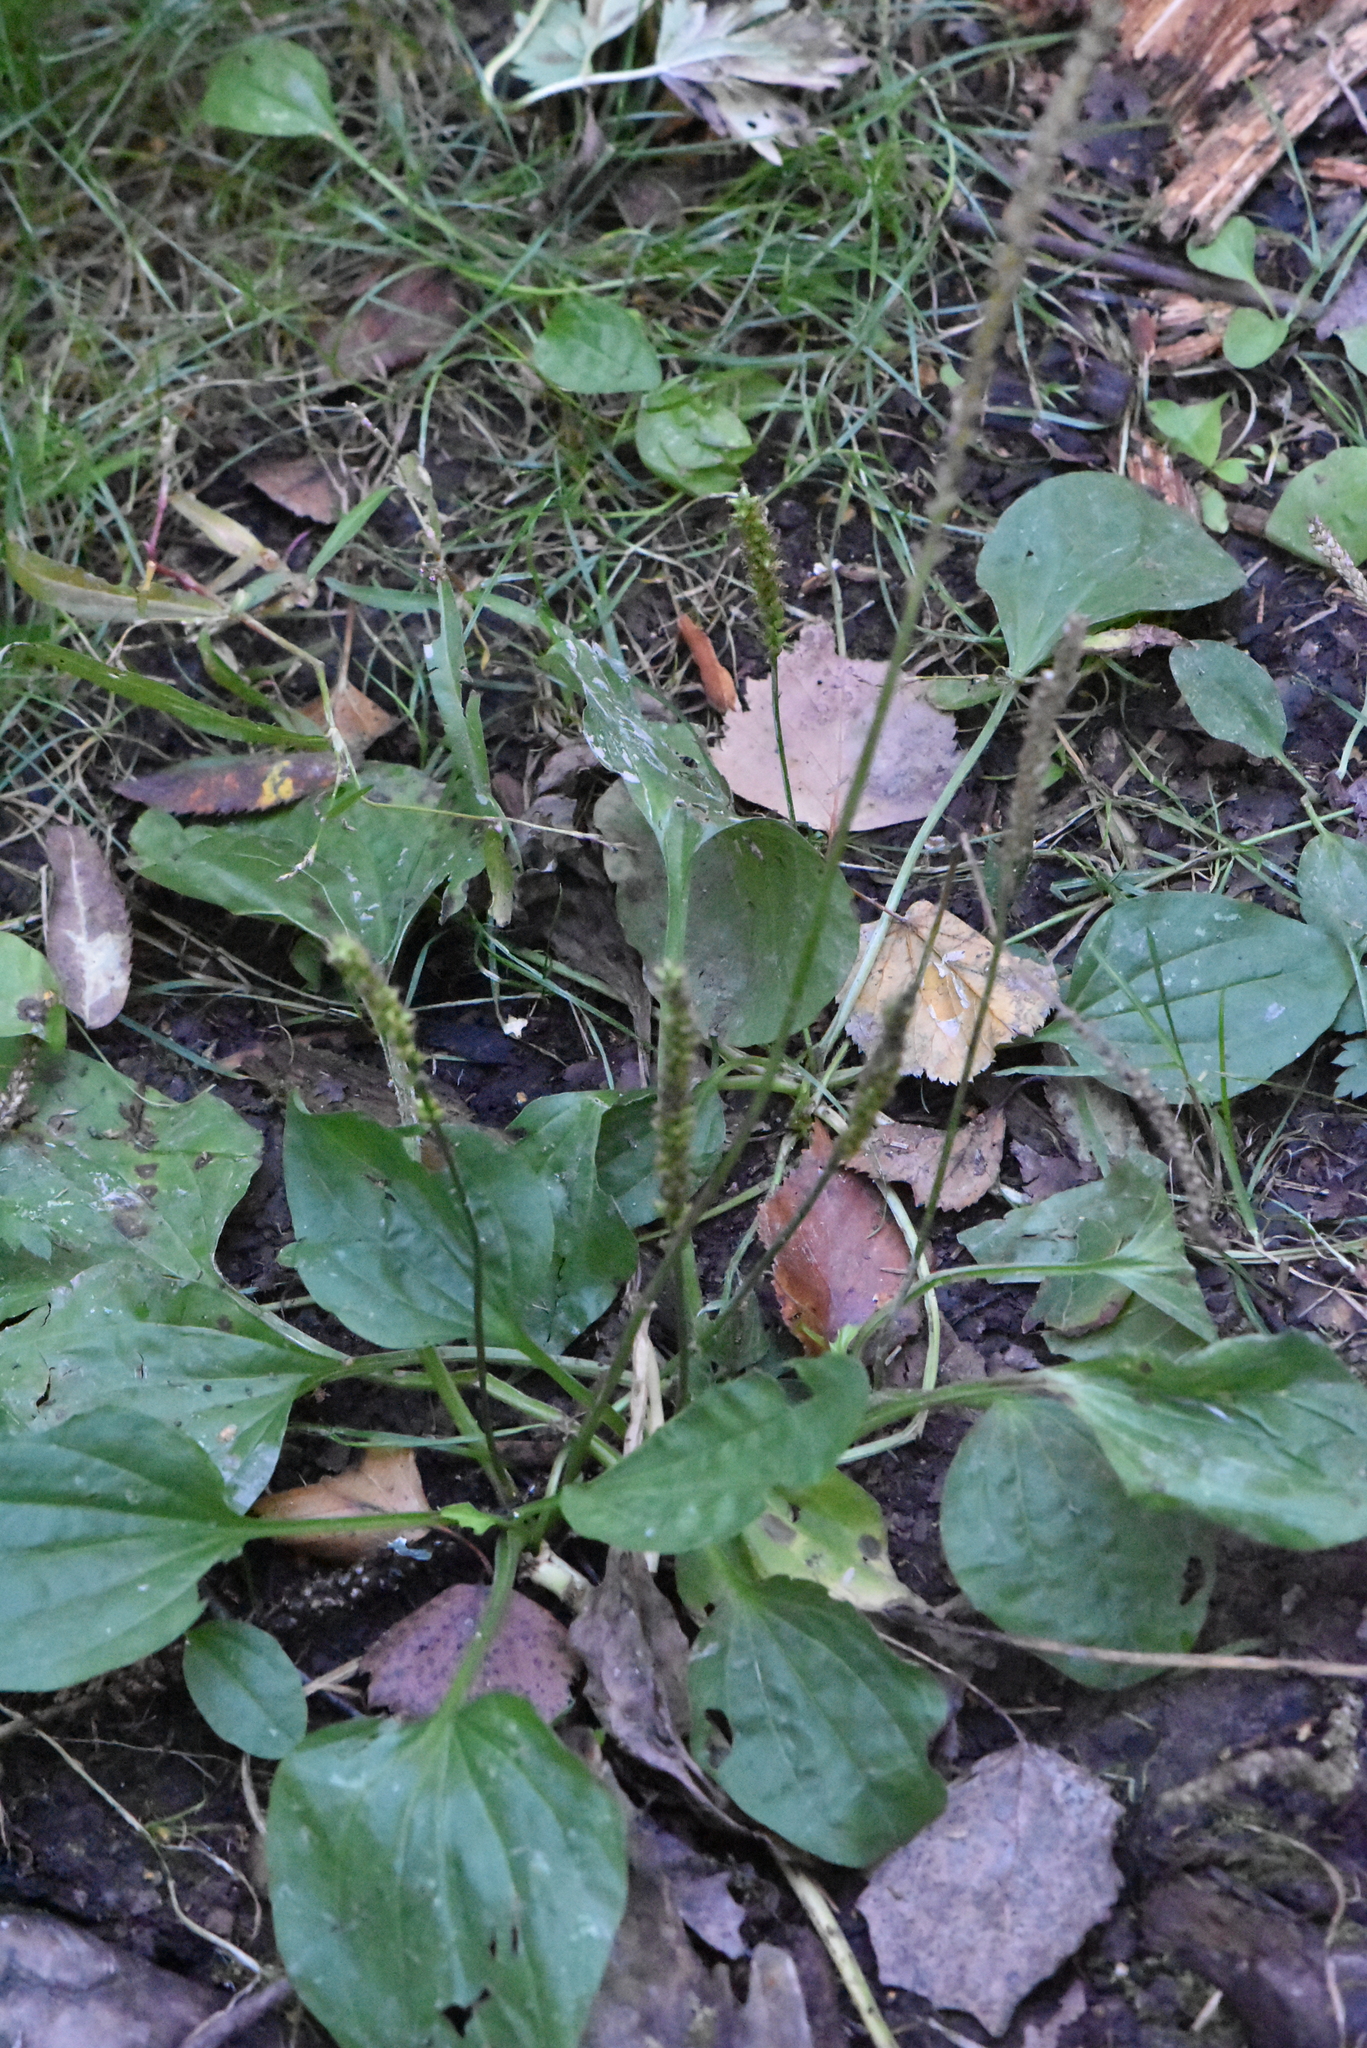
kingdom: Plantae
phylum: Tracheophyta
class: Magnoliopsida
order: Lamiales
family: Plantaginaceae
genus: Plantago
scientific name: Plantago major
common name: Common plantain
